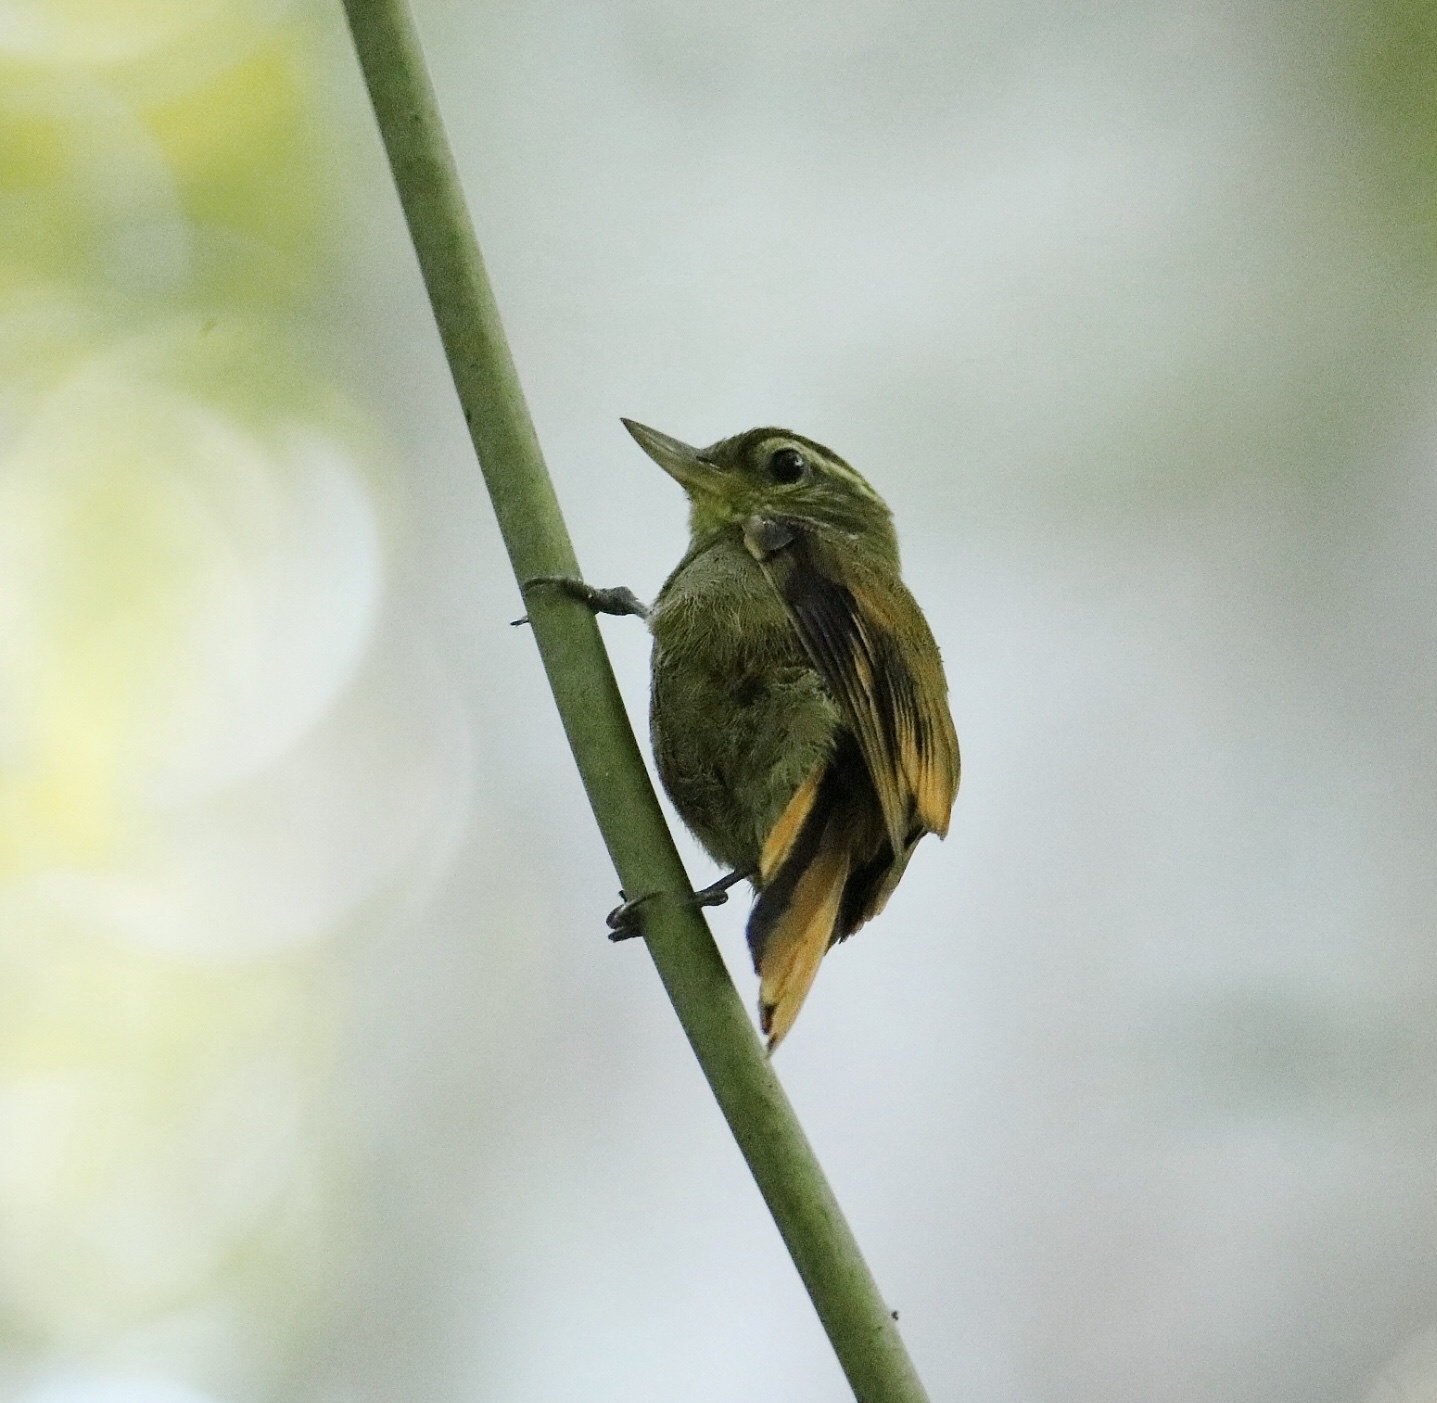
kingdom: Animalia
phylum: Chordata
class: Aves
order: Passeriformes
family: Furnariidae
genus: Xenops
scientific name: Xenops minutus
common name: Plain xenops
